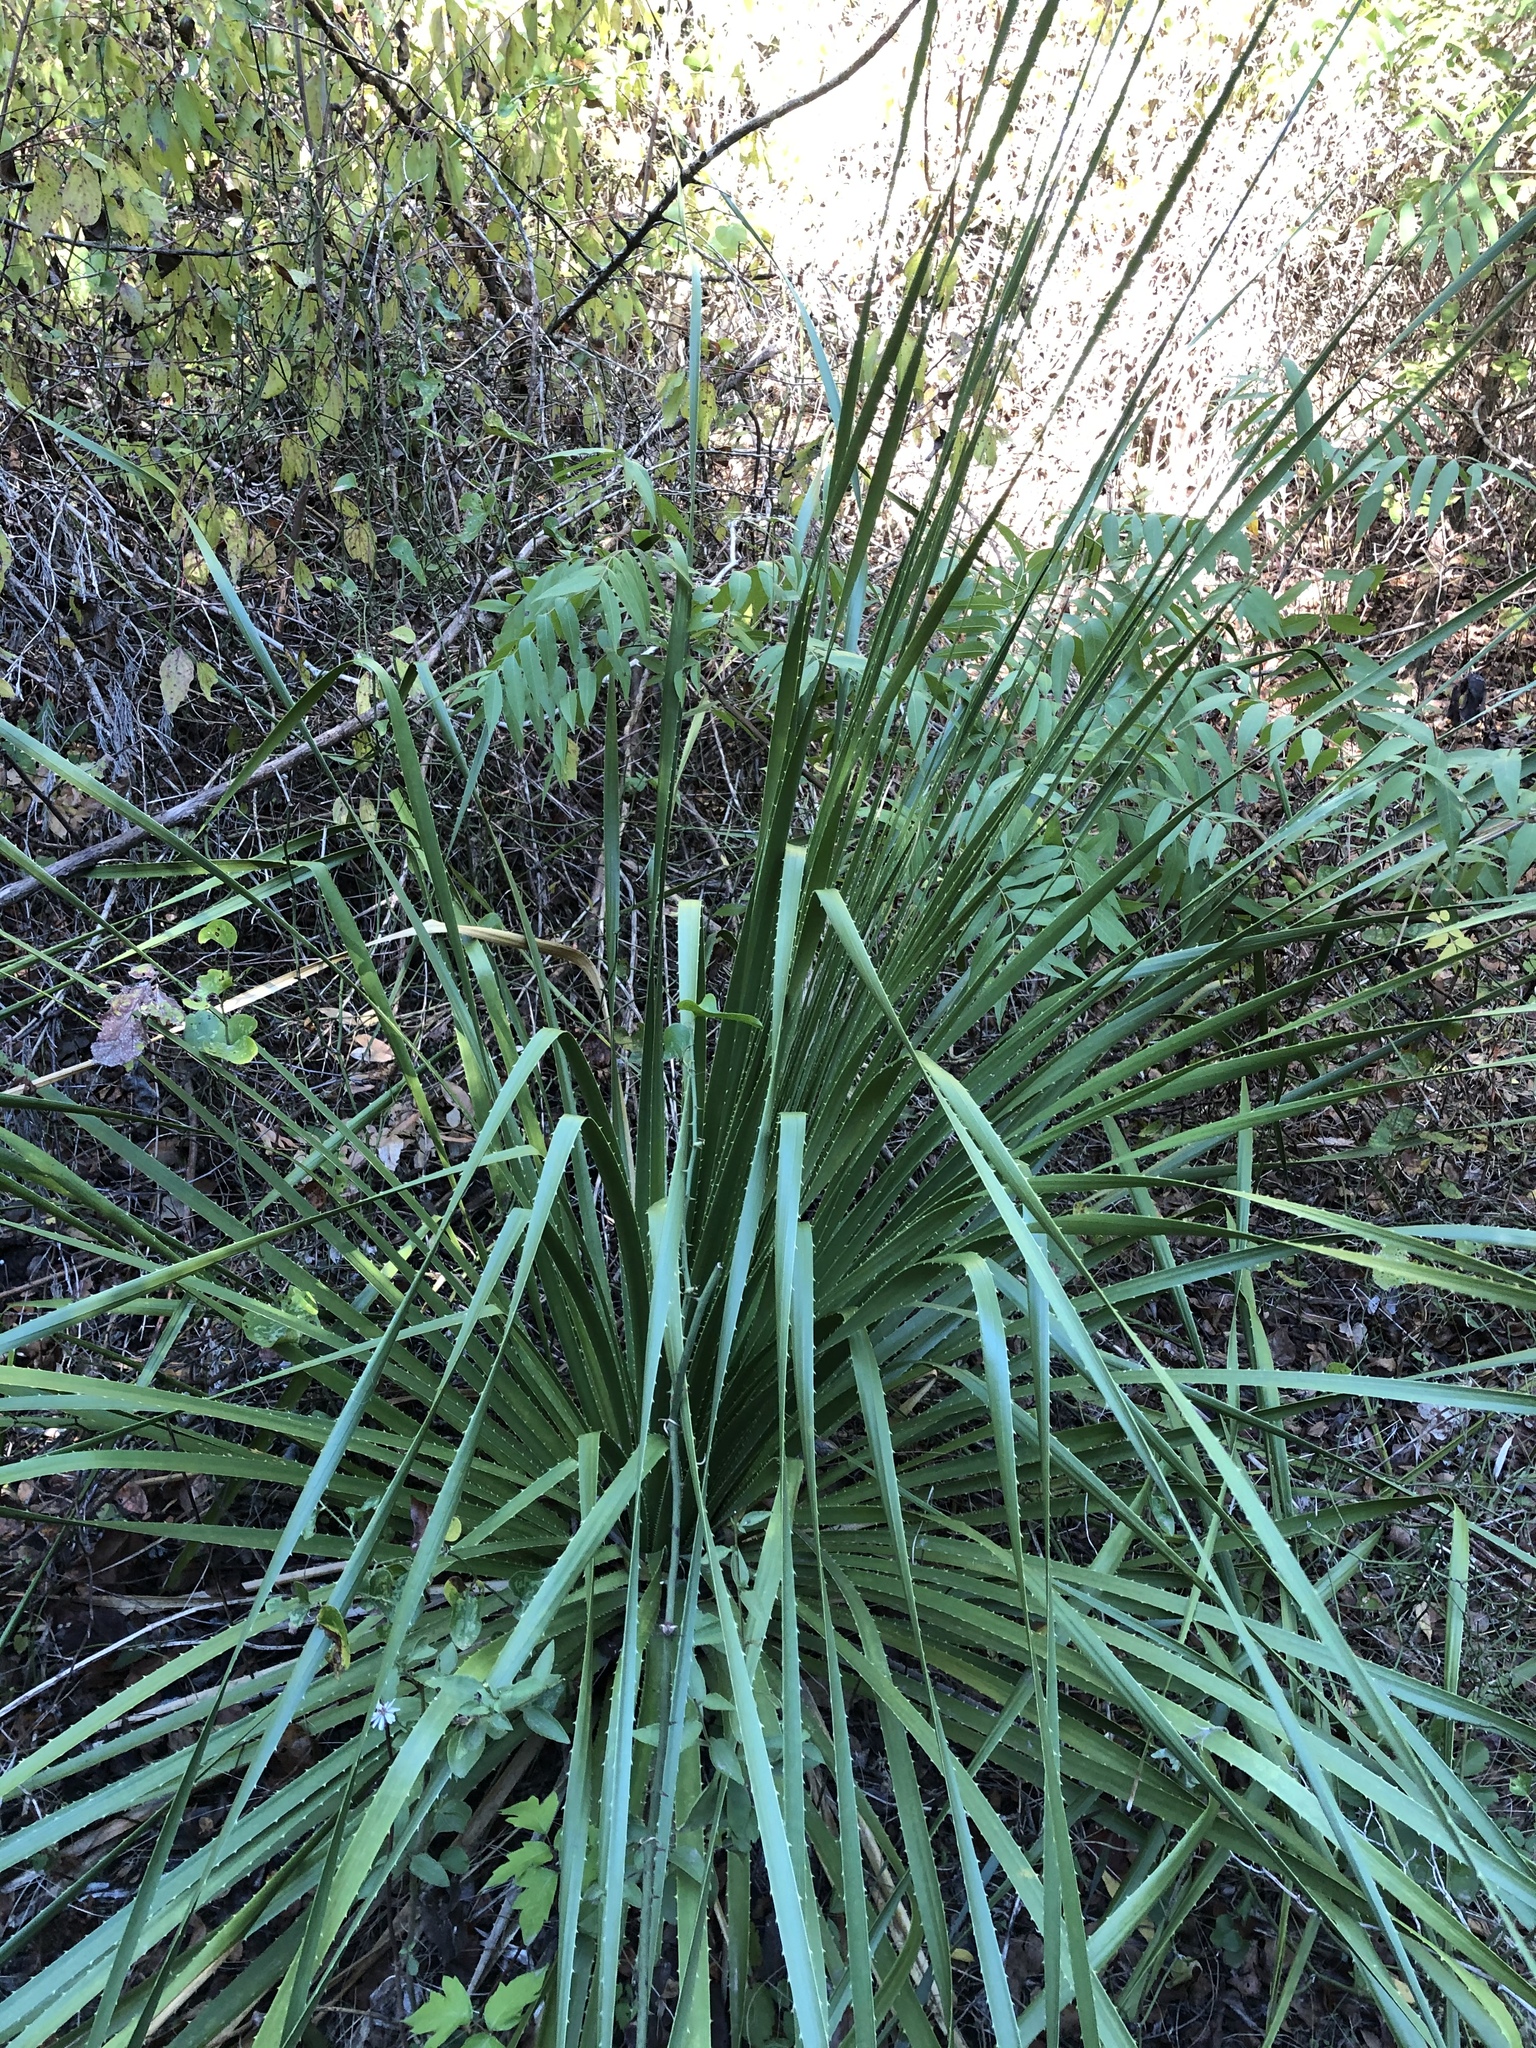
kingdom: Plantae
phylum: Tracheophyta
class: Liliopsida
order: Asparagales
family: Asparagaceae
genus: Dasylirion
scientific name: Dasylirion texanum
